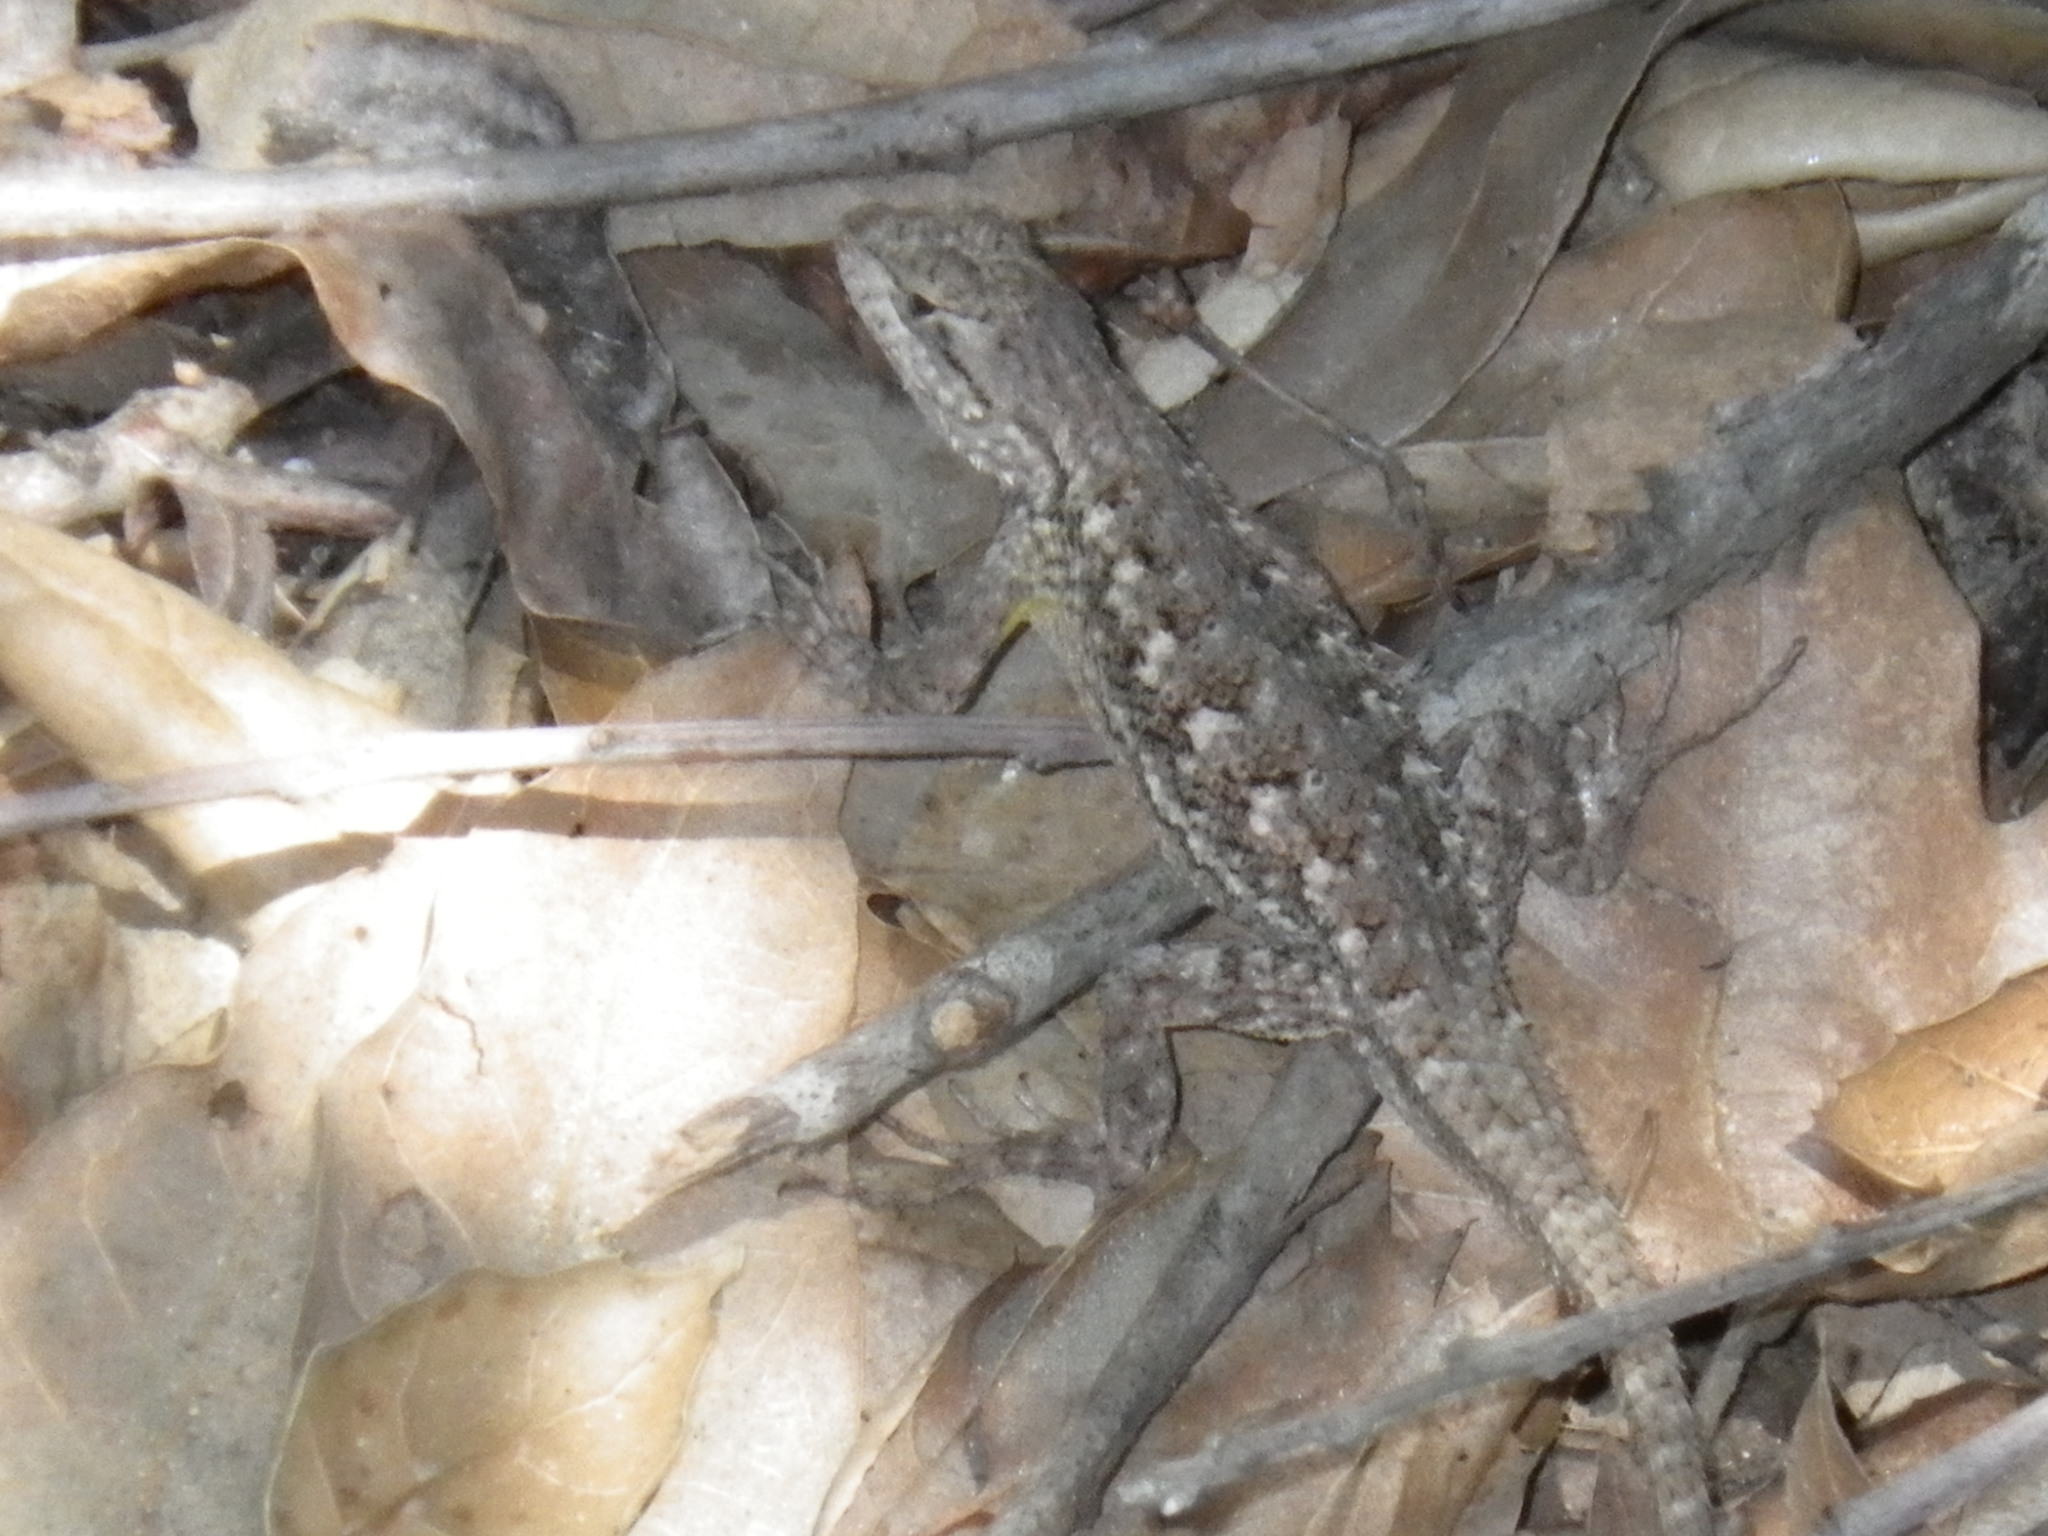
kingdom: Animalia
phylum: Chordata
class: Squamata
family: Phrynosomatidae
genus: Sceloporus
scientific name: Sceloporus occidentalis
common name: Western fence lizard
